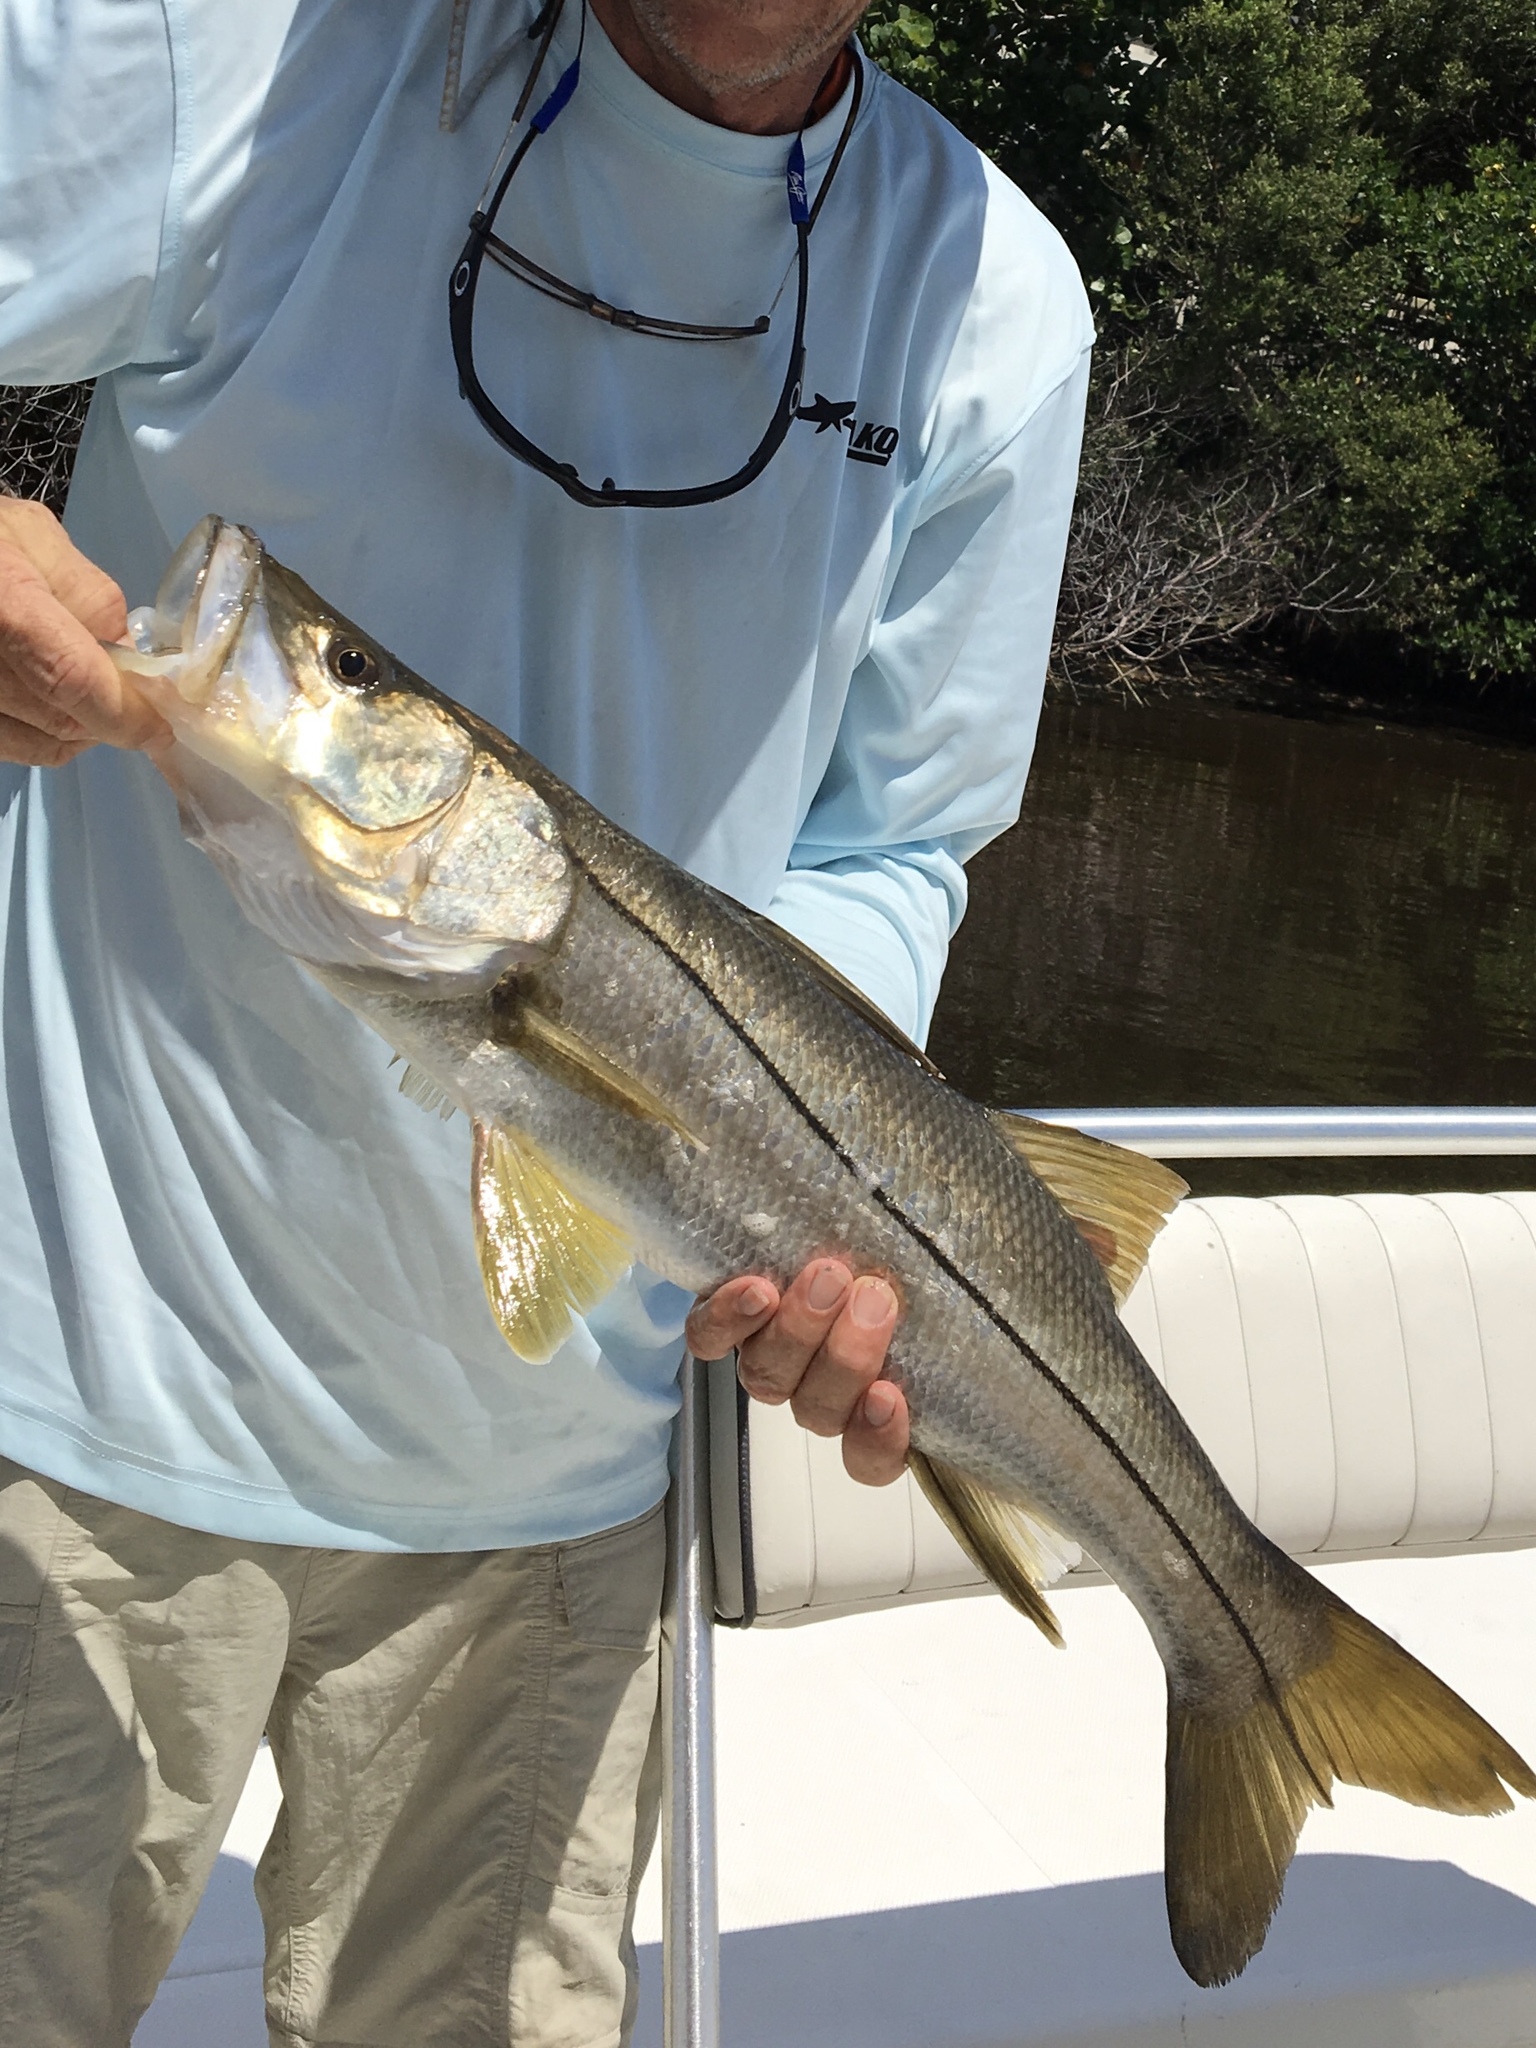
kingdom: Animalia
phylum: Chordata
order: Perciformes
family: Centropomidae
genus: Centropomus
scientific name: Centropomus undecimalis
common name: Snook
